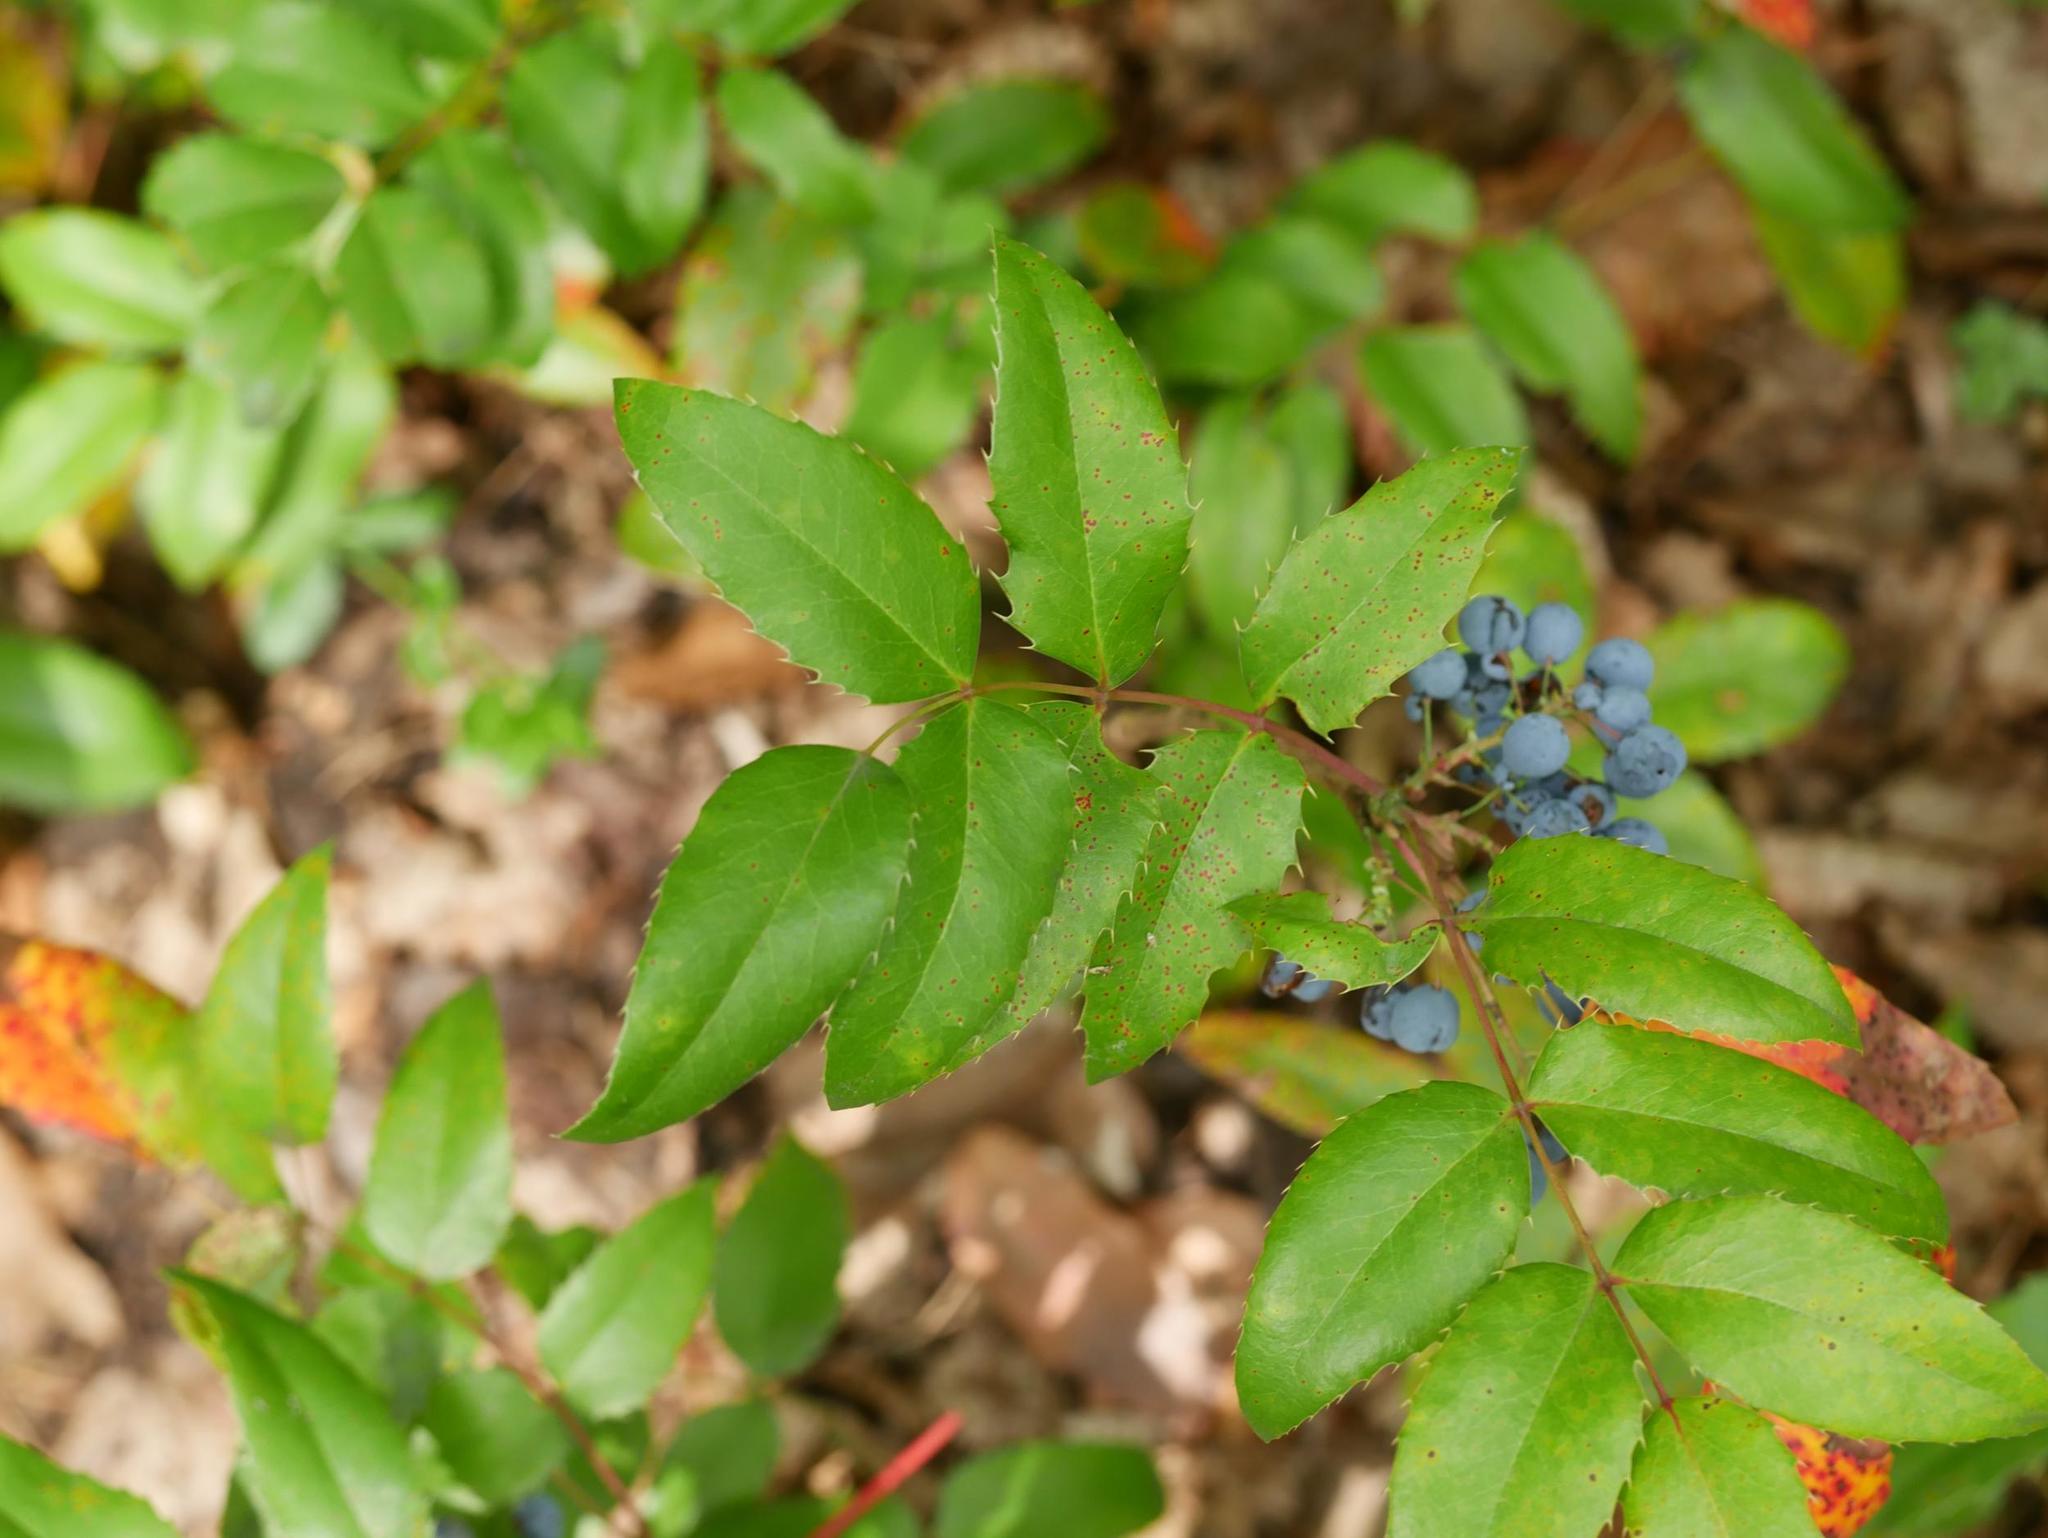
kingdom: Plantae
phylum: Tracheophyta
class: Magnoliopsida
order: Ranunculales
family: Berberidaceae
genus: Mahonia
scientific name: Mahonia aquifolium
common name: Oregon-grape
